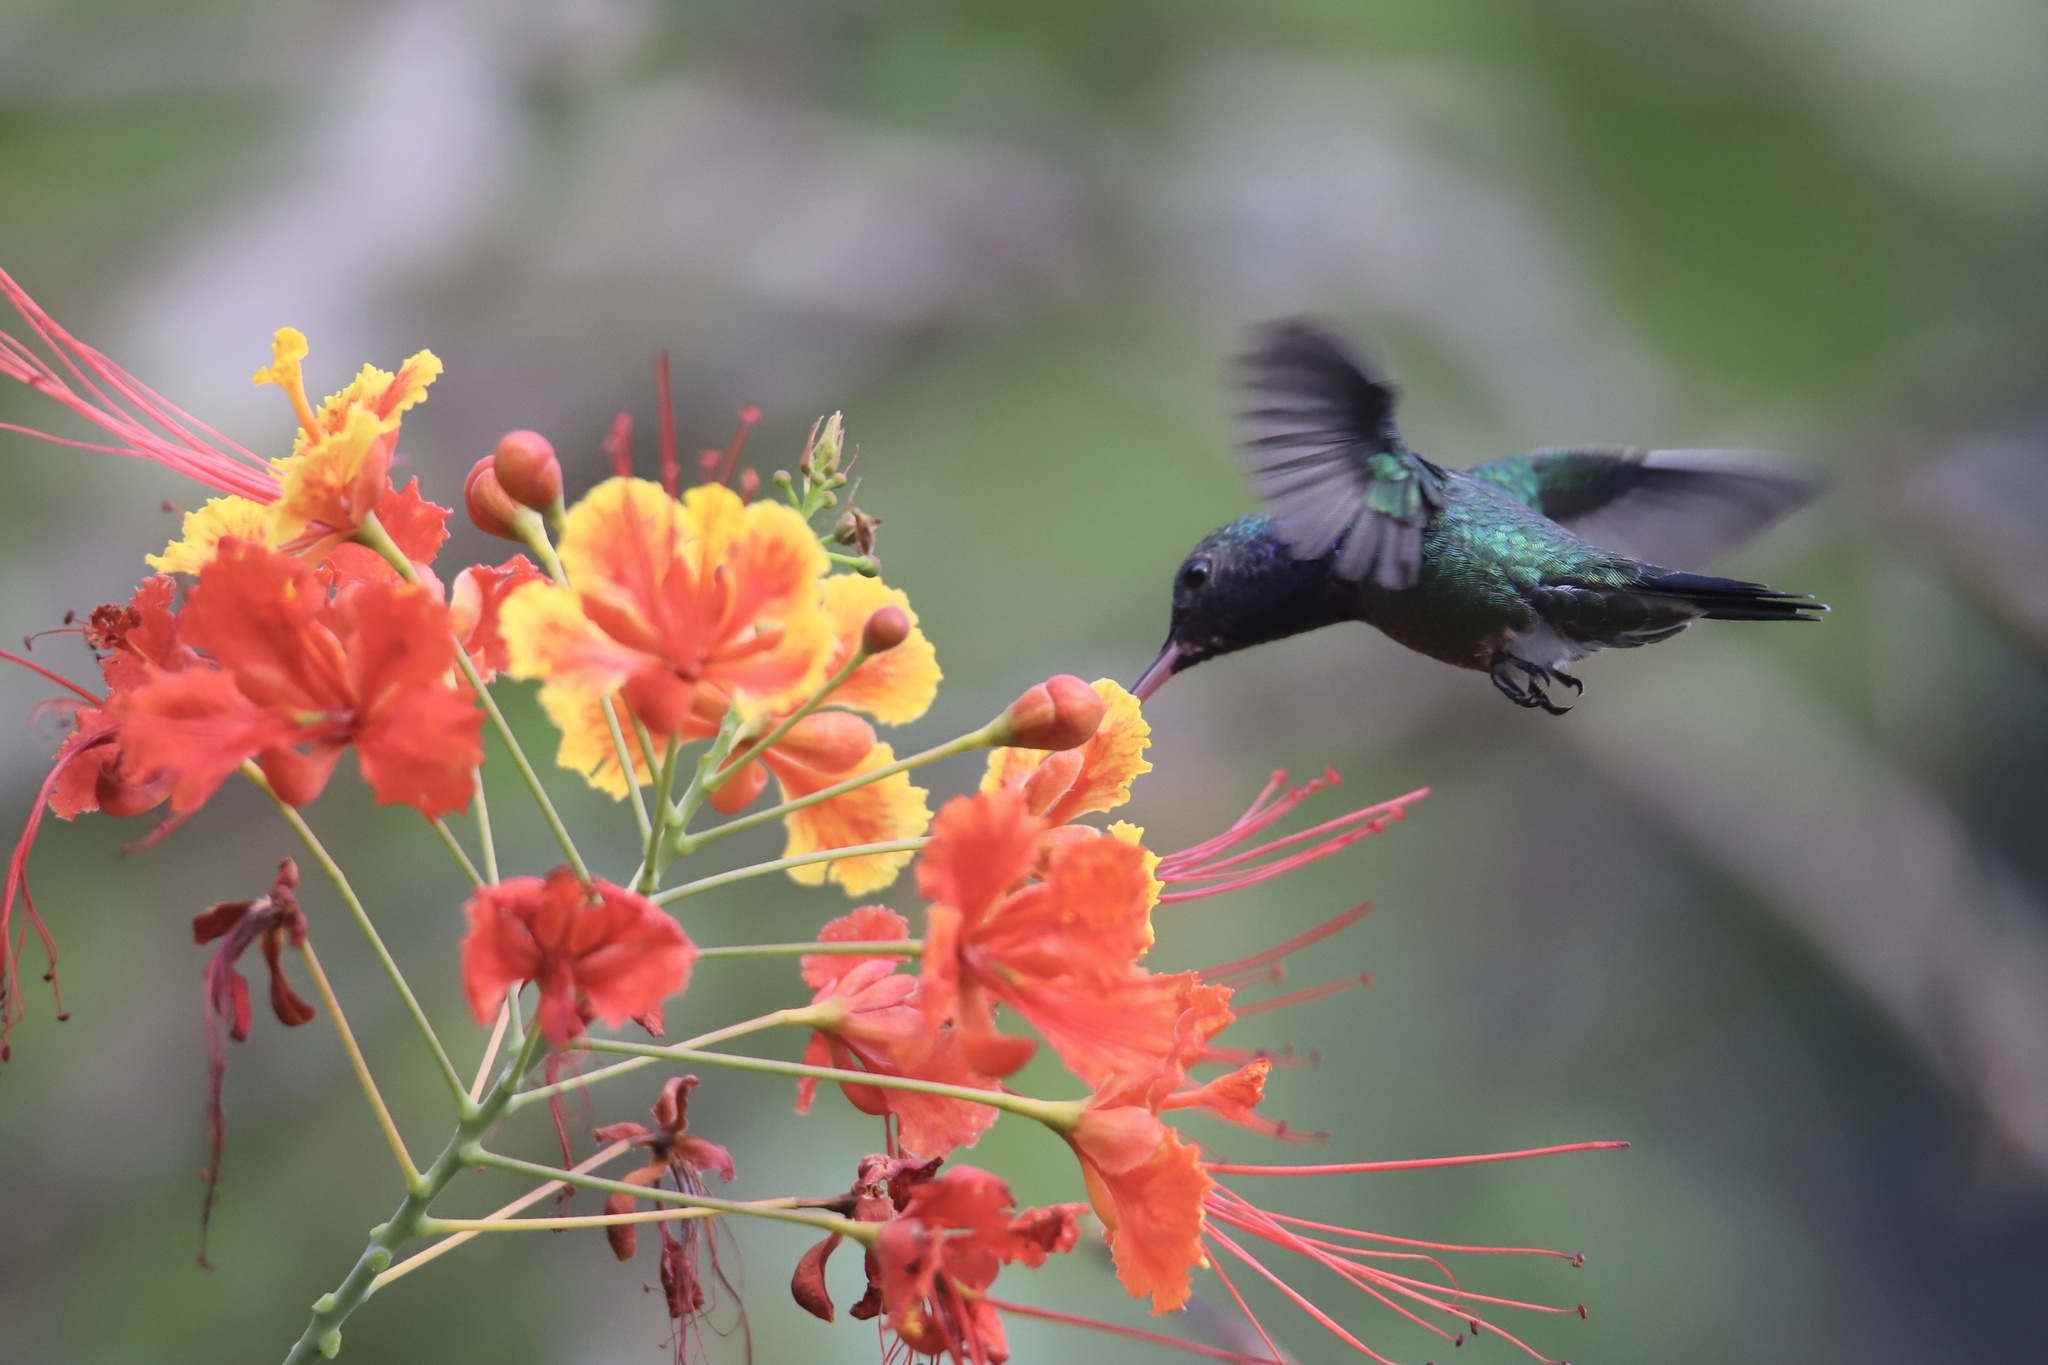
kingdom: Animalia
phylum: Chordata
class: Aves
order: Apodiformes
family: Trochilidae
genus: Chrysuronia
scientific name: Chrysuronia coeruleogularis
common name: Sapphire-throated hummingbird
